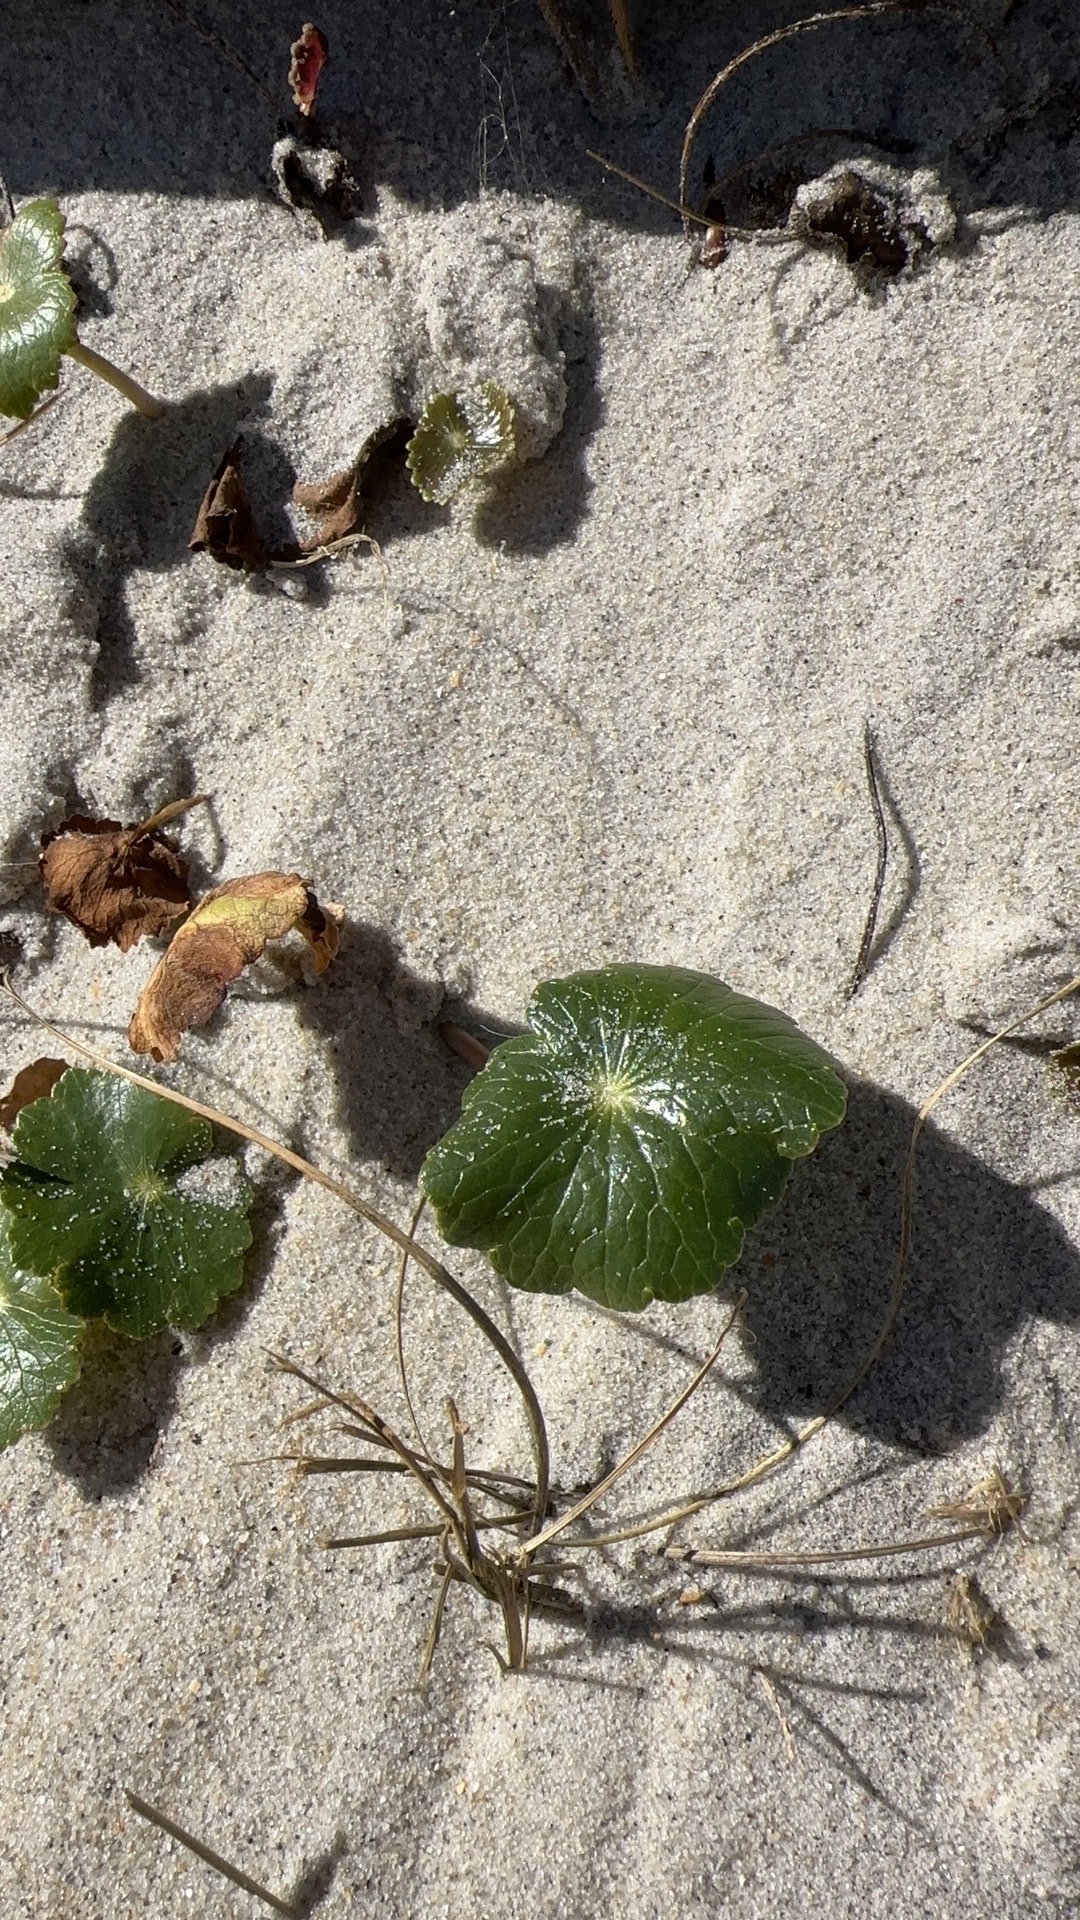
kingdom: Plantae
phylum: Tracheophyta
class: Magnoliopsida
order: Apiales
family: Araliaceae
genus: Hydrocotyle
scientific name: Hydrocotyle bonariensis
